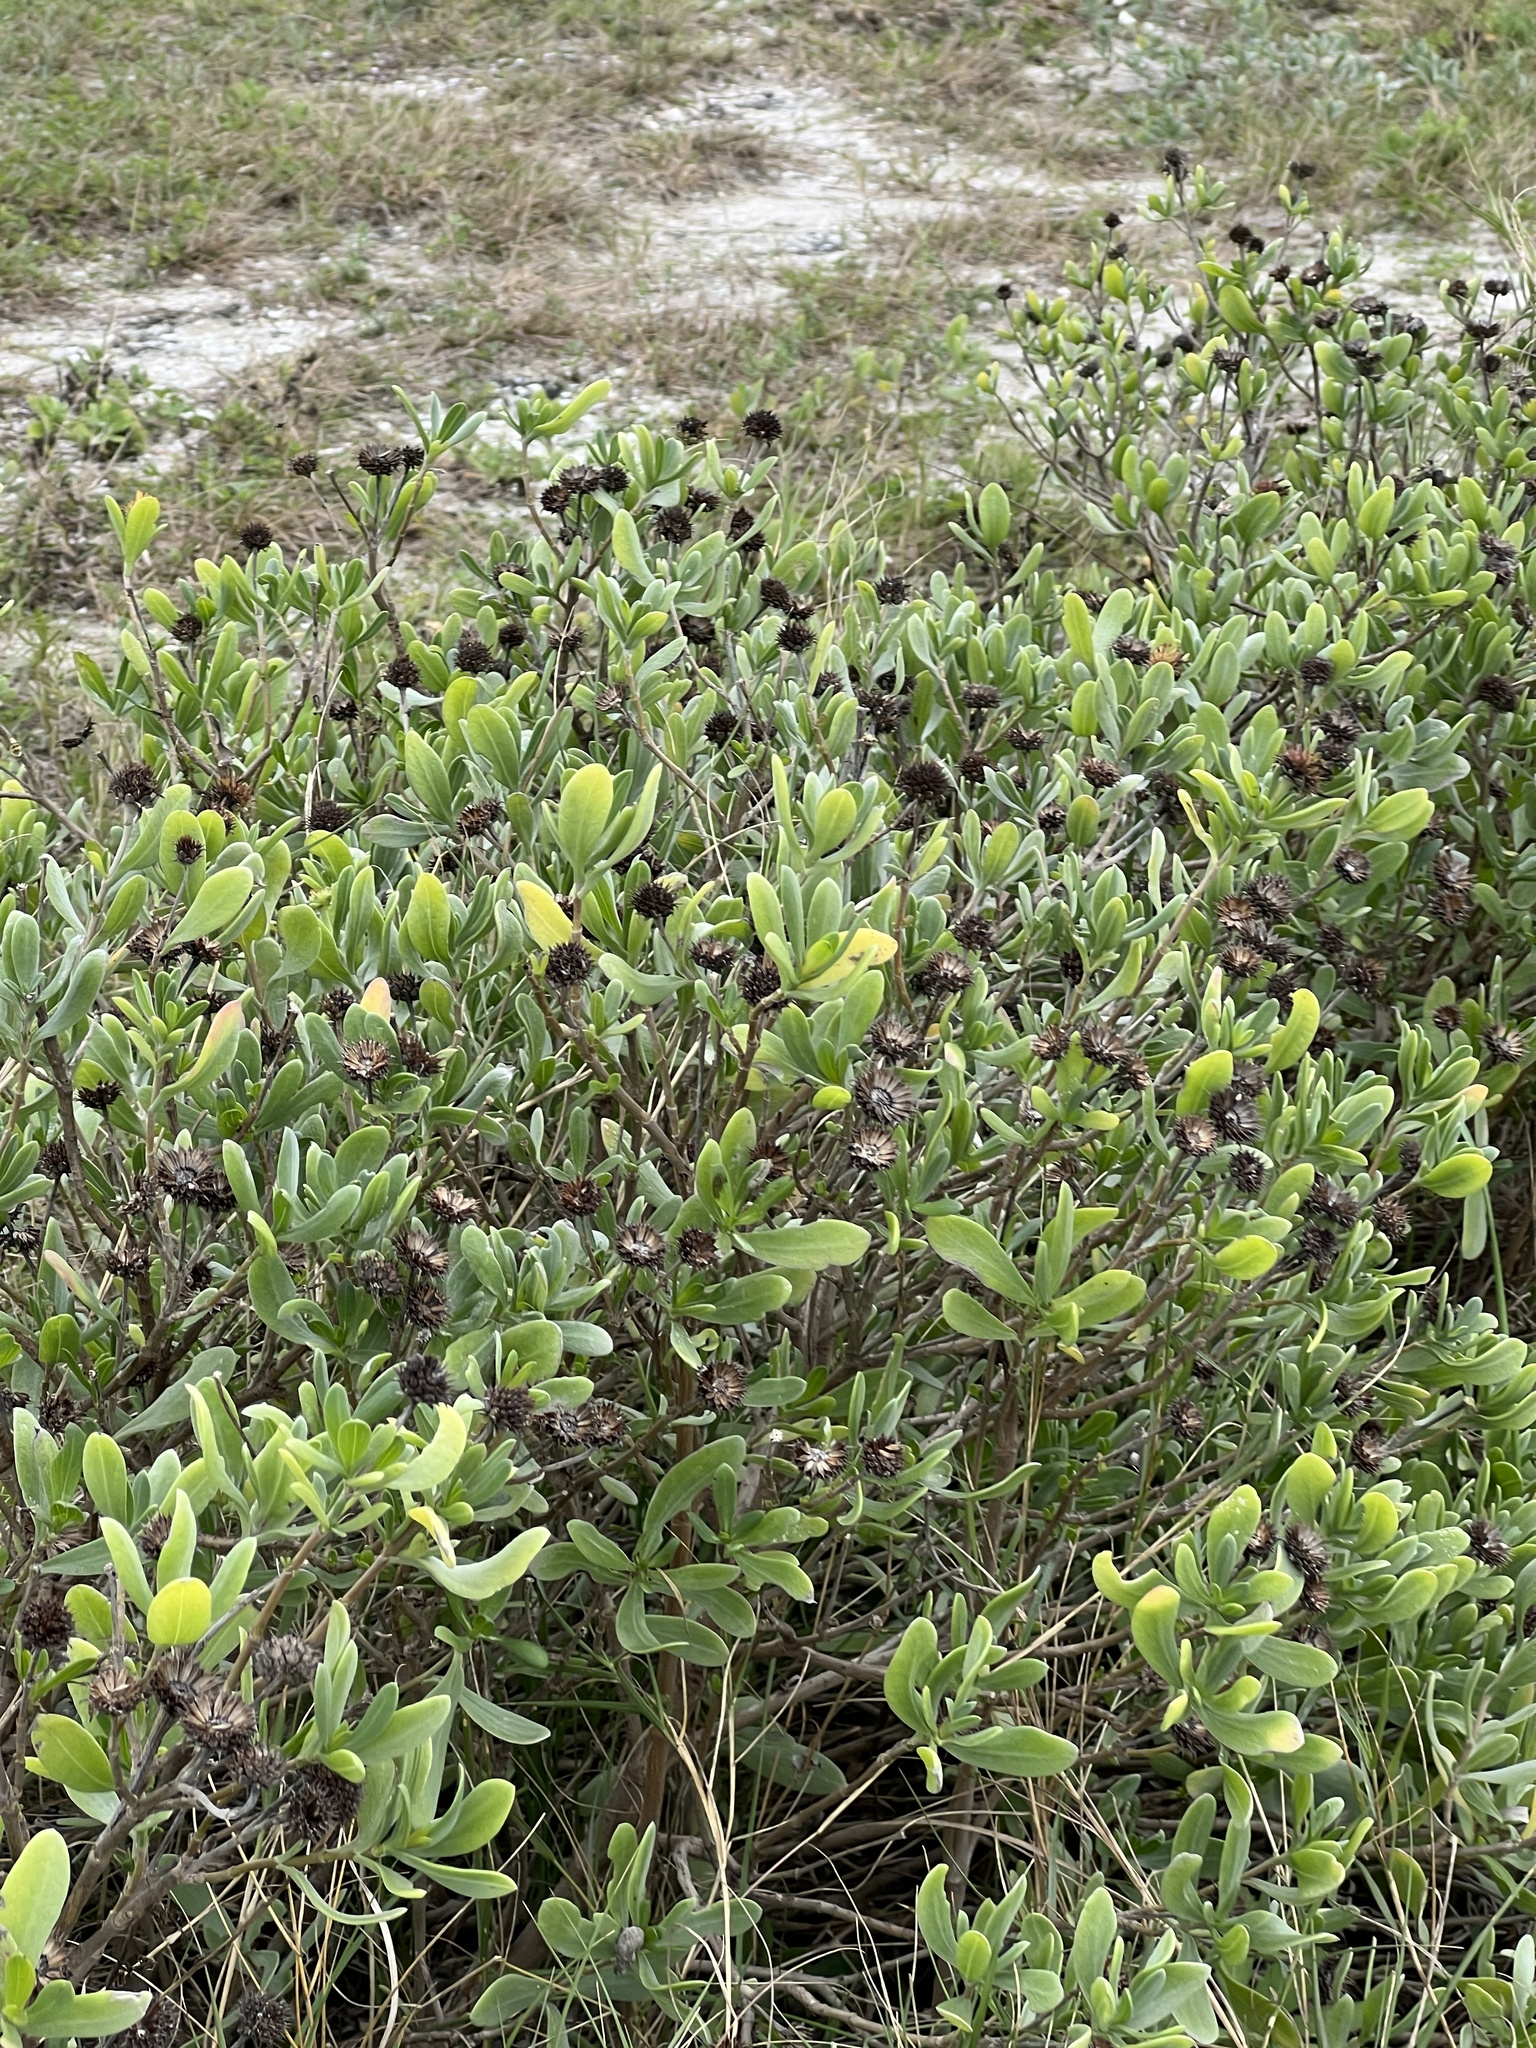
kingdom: Plantae
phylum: Tracheophyta
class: Magnoliopsida
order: Asterales
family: Asteraceae
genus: Borrichia
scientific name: Borrichia frutescens
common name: Sea oxeye
